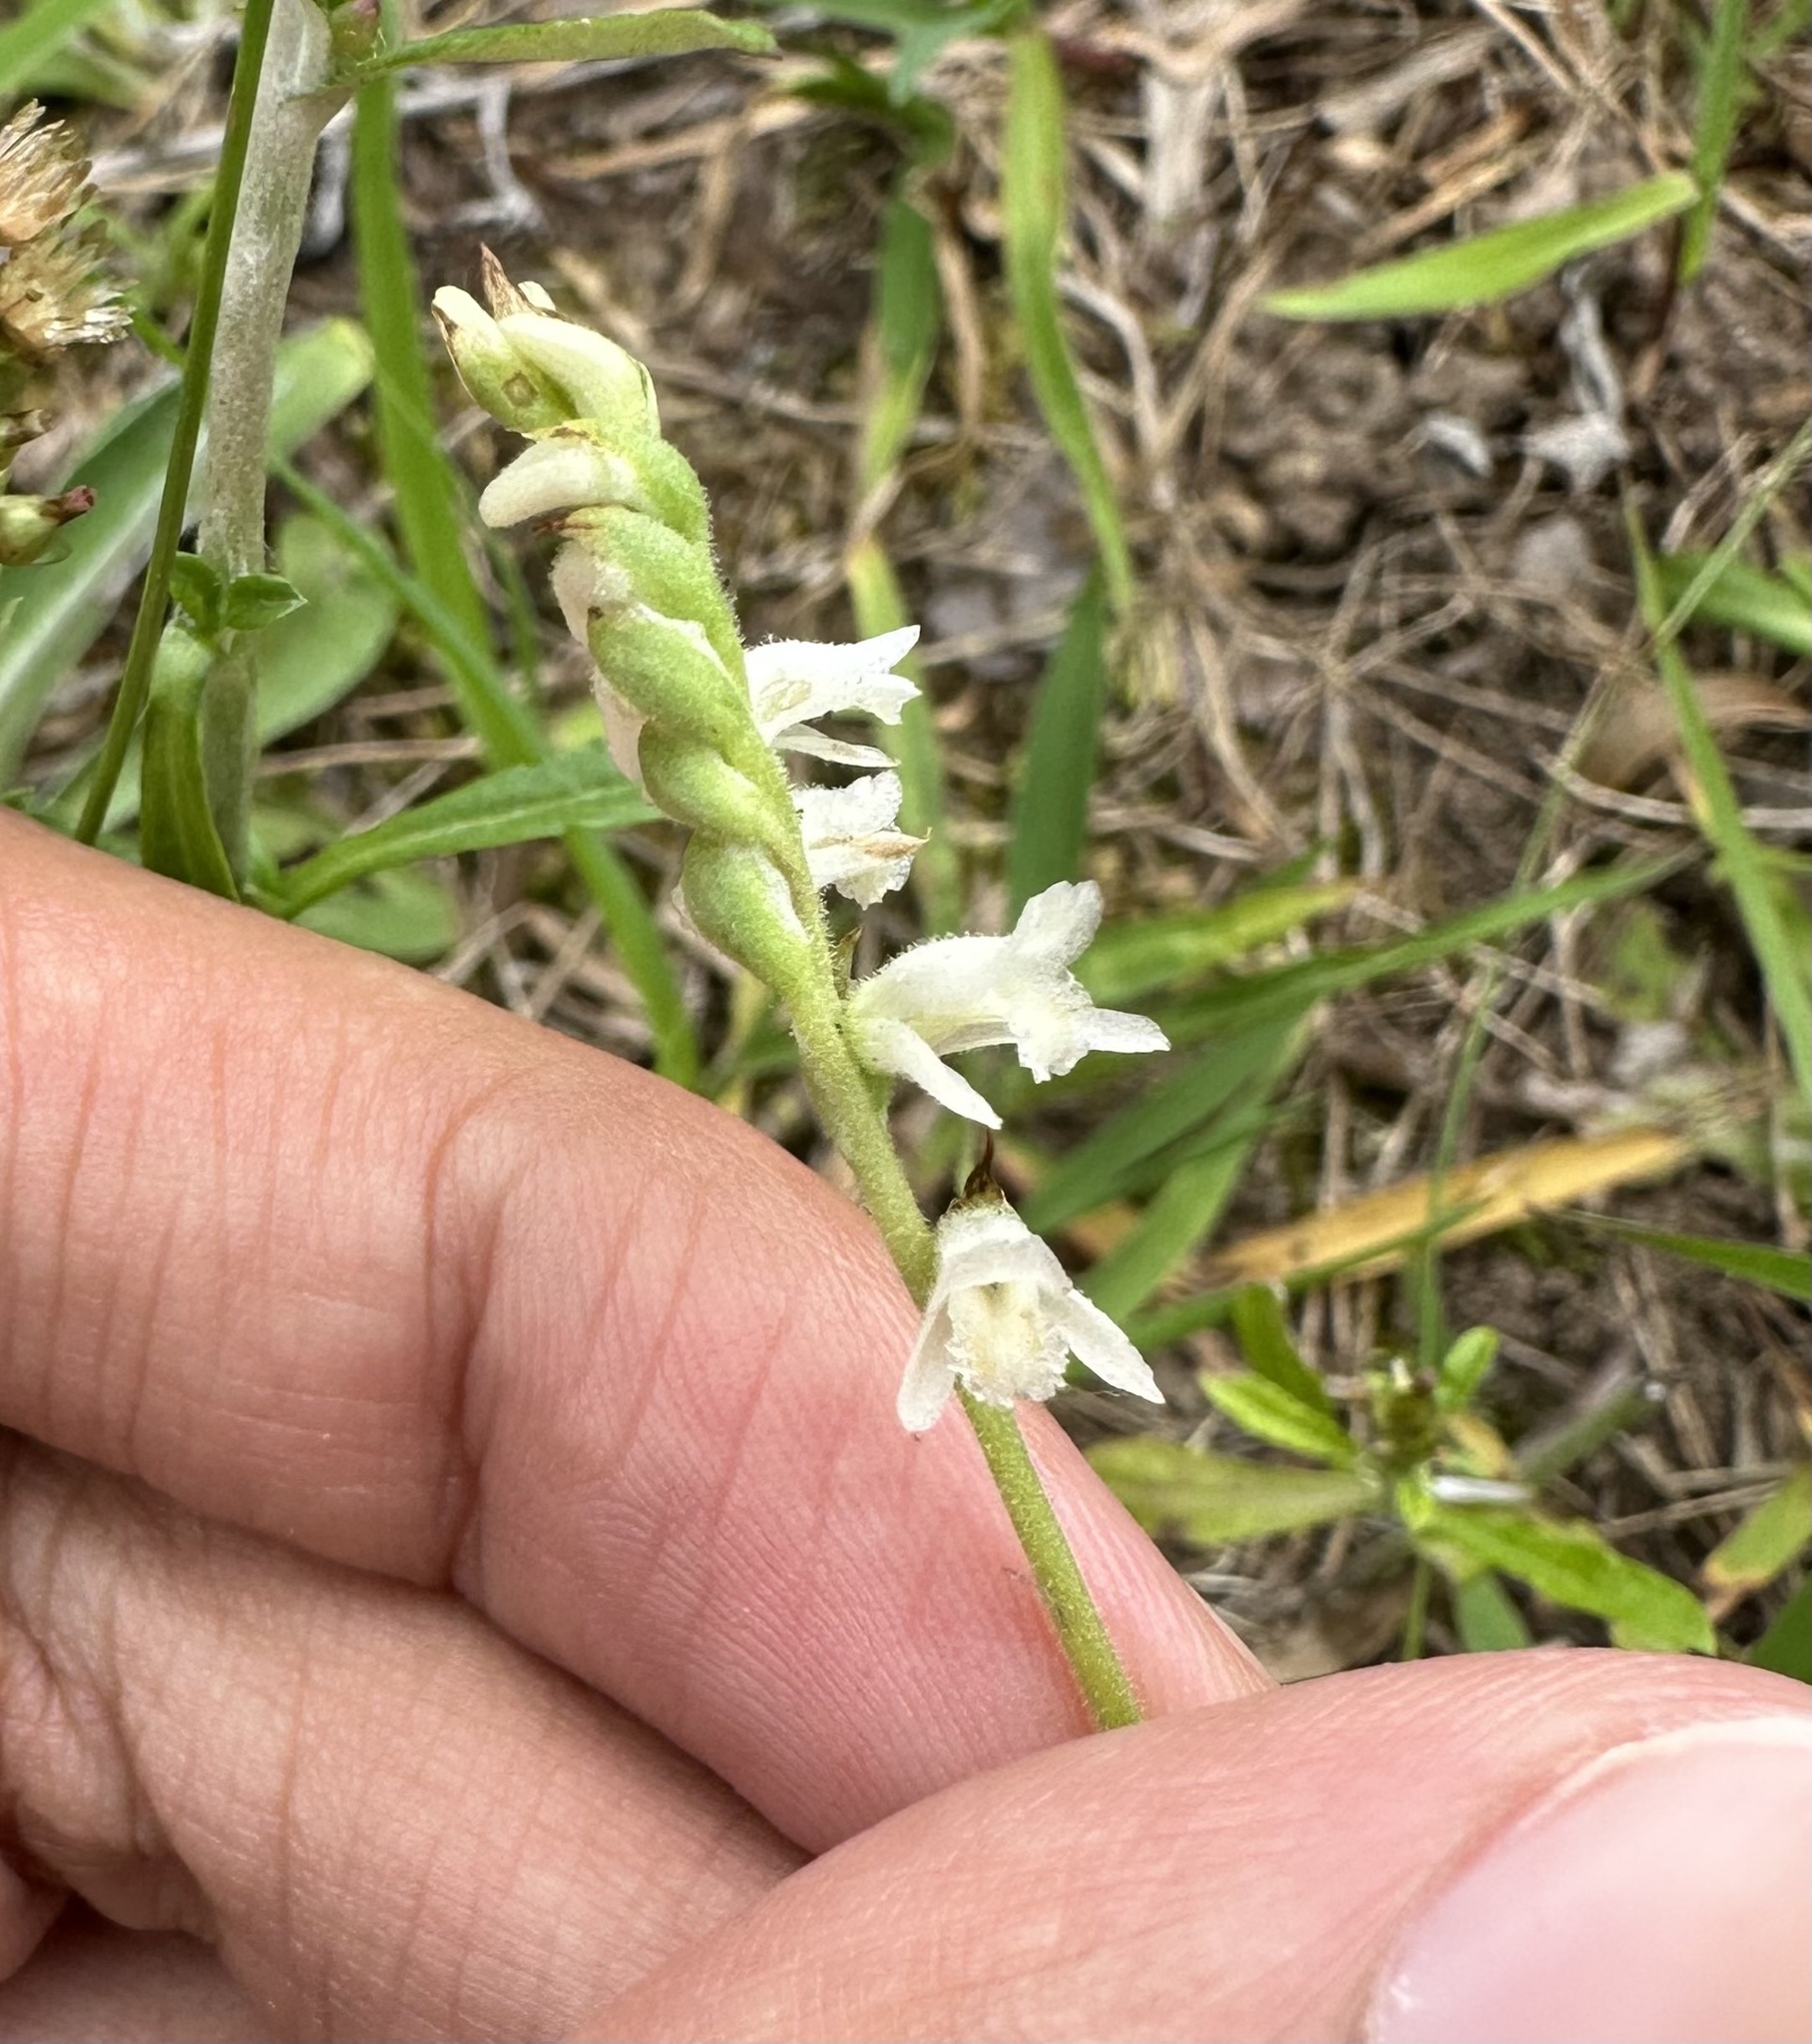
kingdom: Plantae
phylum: Tracheophyta
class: Liliopsida
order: Asparagales
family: Orchidaceae
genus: Spiranthes
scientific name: Spiranthes vernalis
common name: Spring ladies'-tresses
